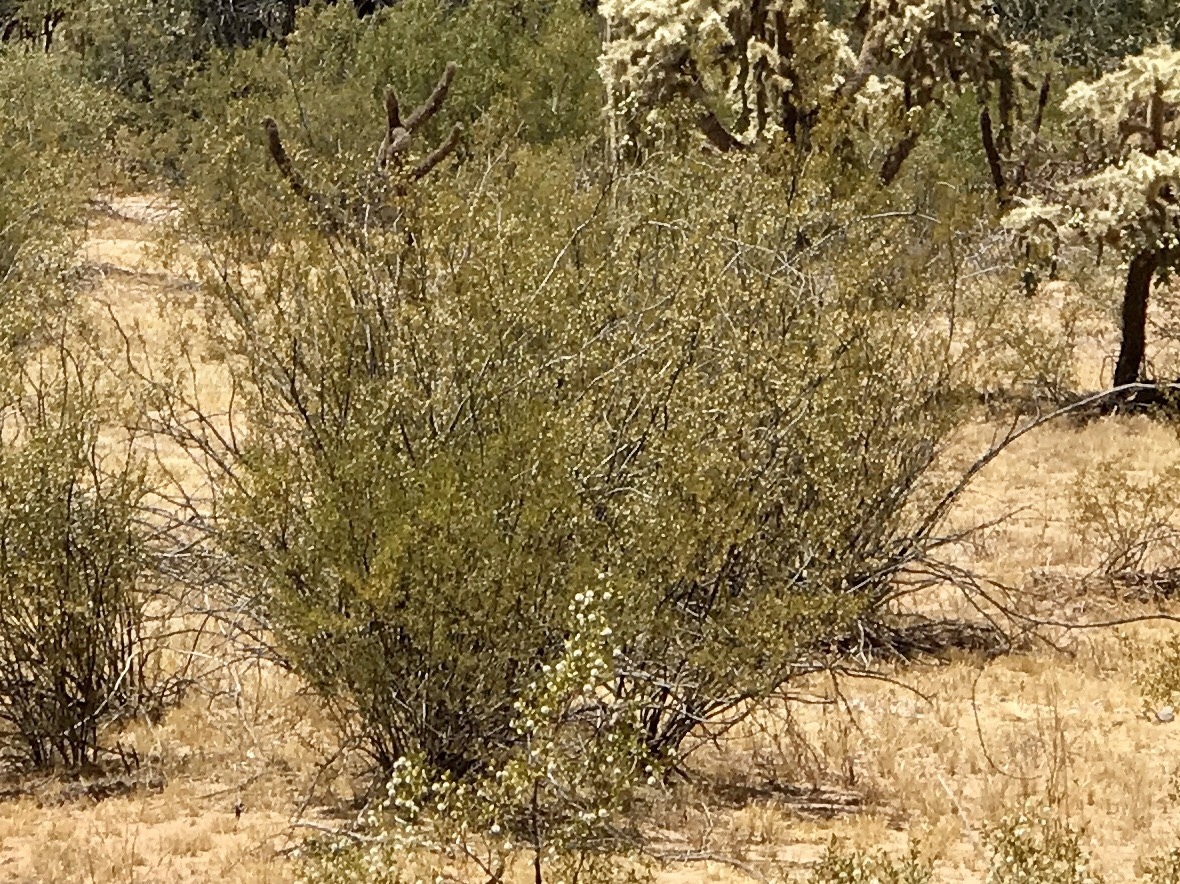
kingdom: Plantae
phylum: Tracheophyta
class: Magnoliopsida
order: Zygophyllales
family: Zygophyllaceae
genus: Larrea
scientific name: Larrea tridentata
